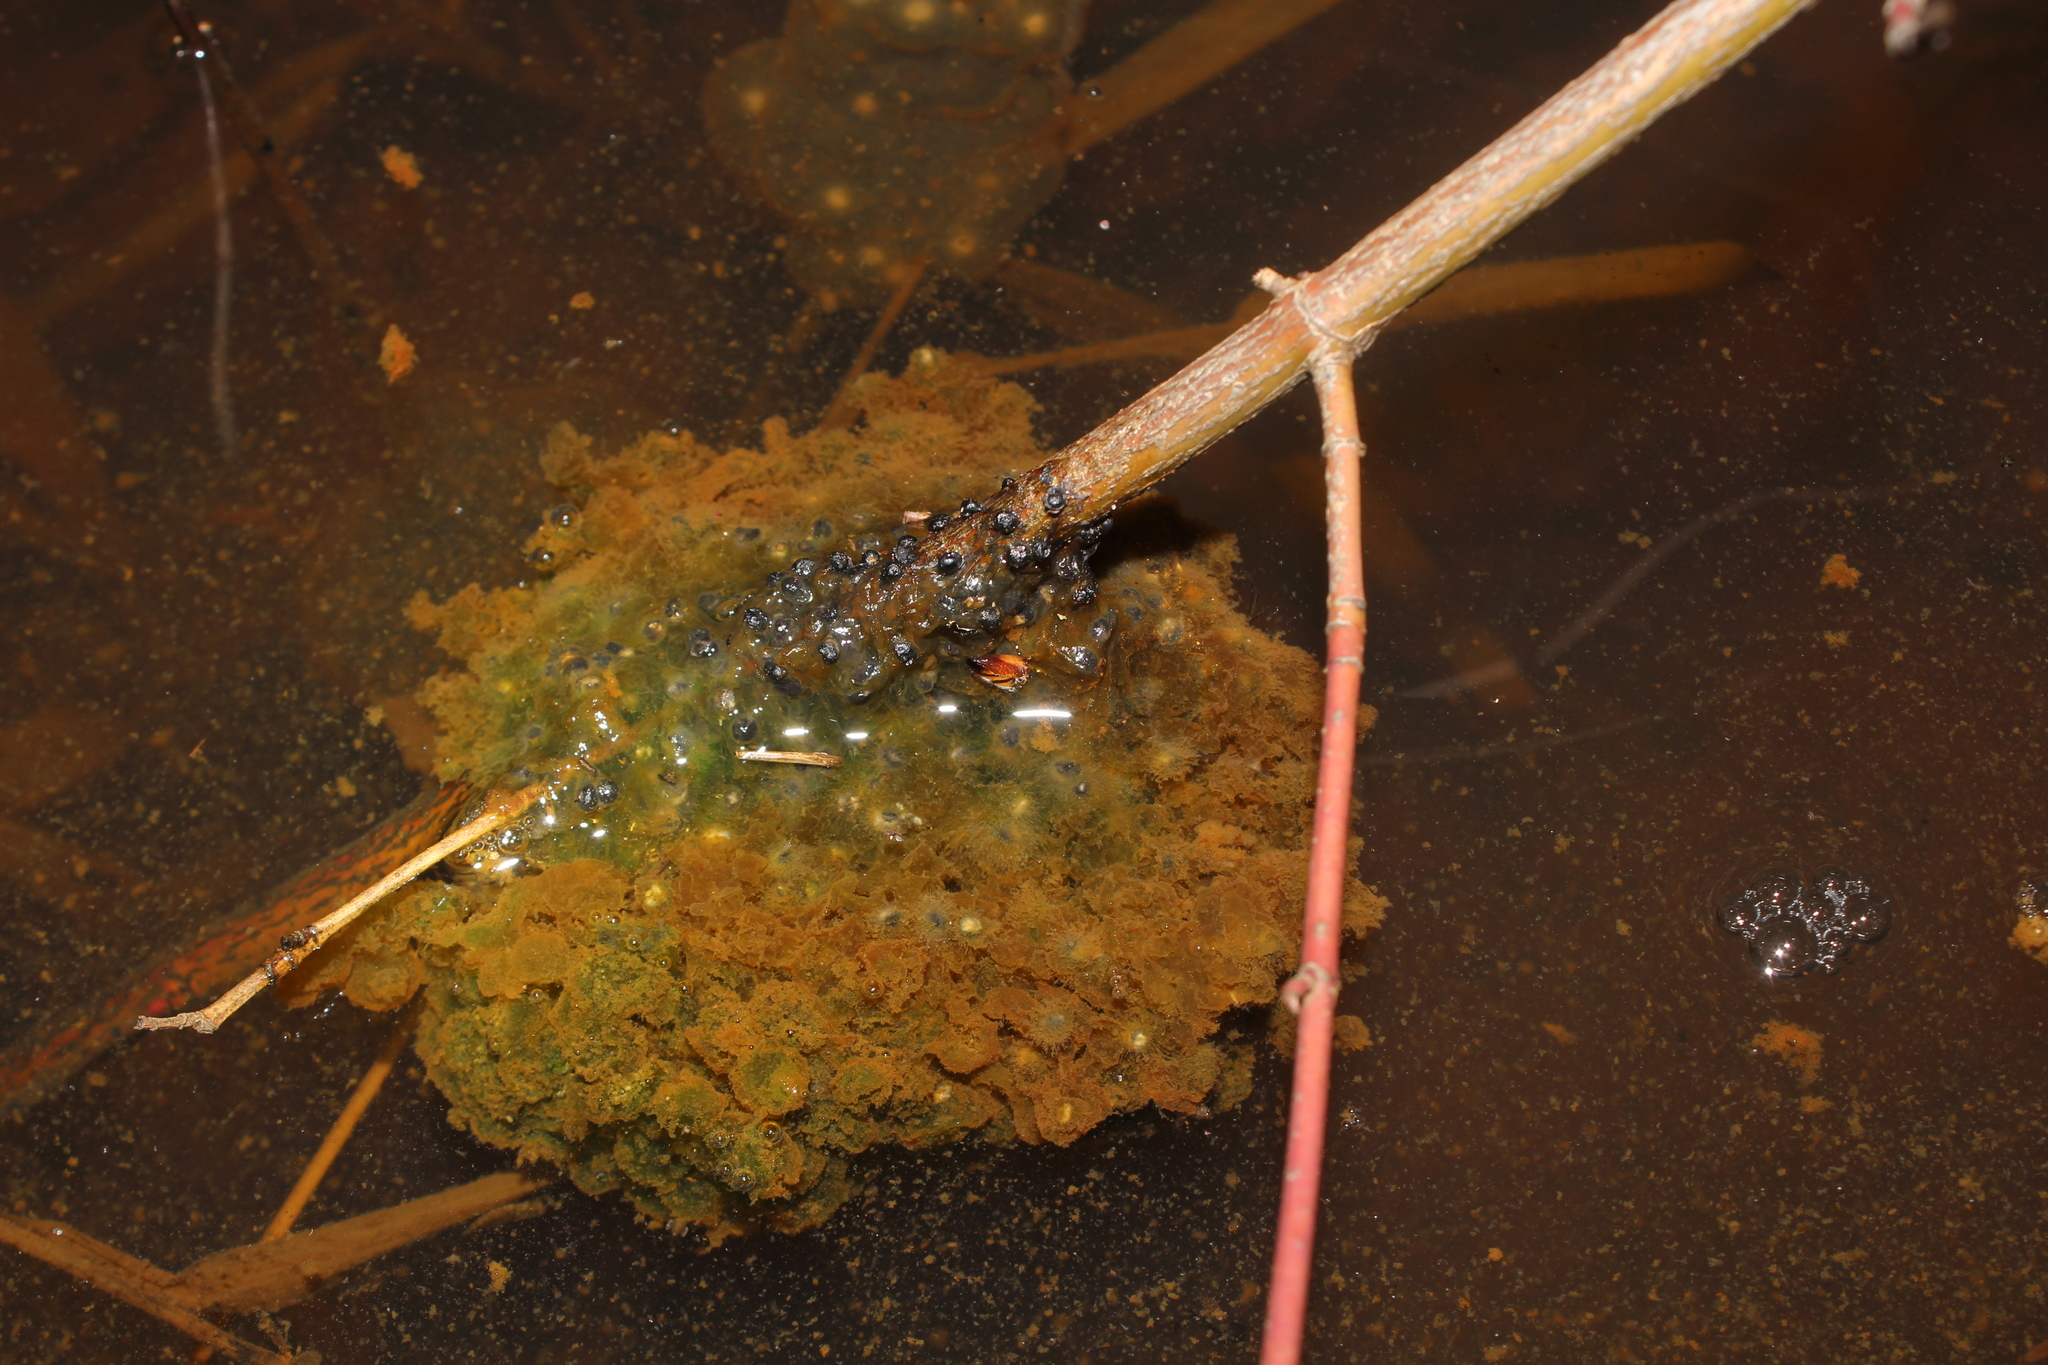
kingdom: Animalia
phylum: Chordata
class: Amphibia
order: Anura
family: Ranidae
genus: Lithobates
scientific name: Lithobates sylvaticus
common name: Wood frog
